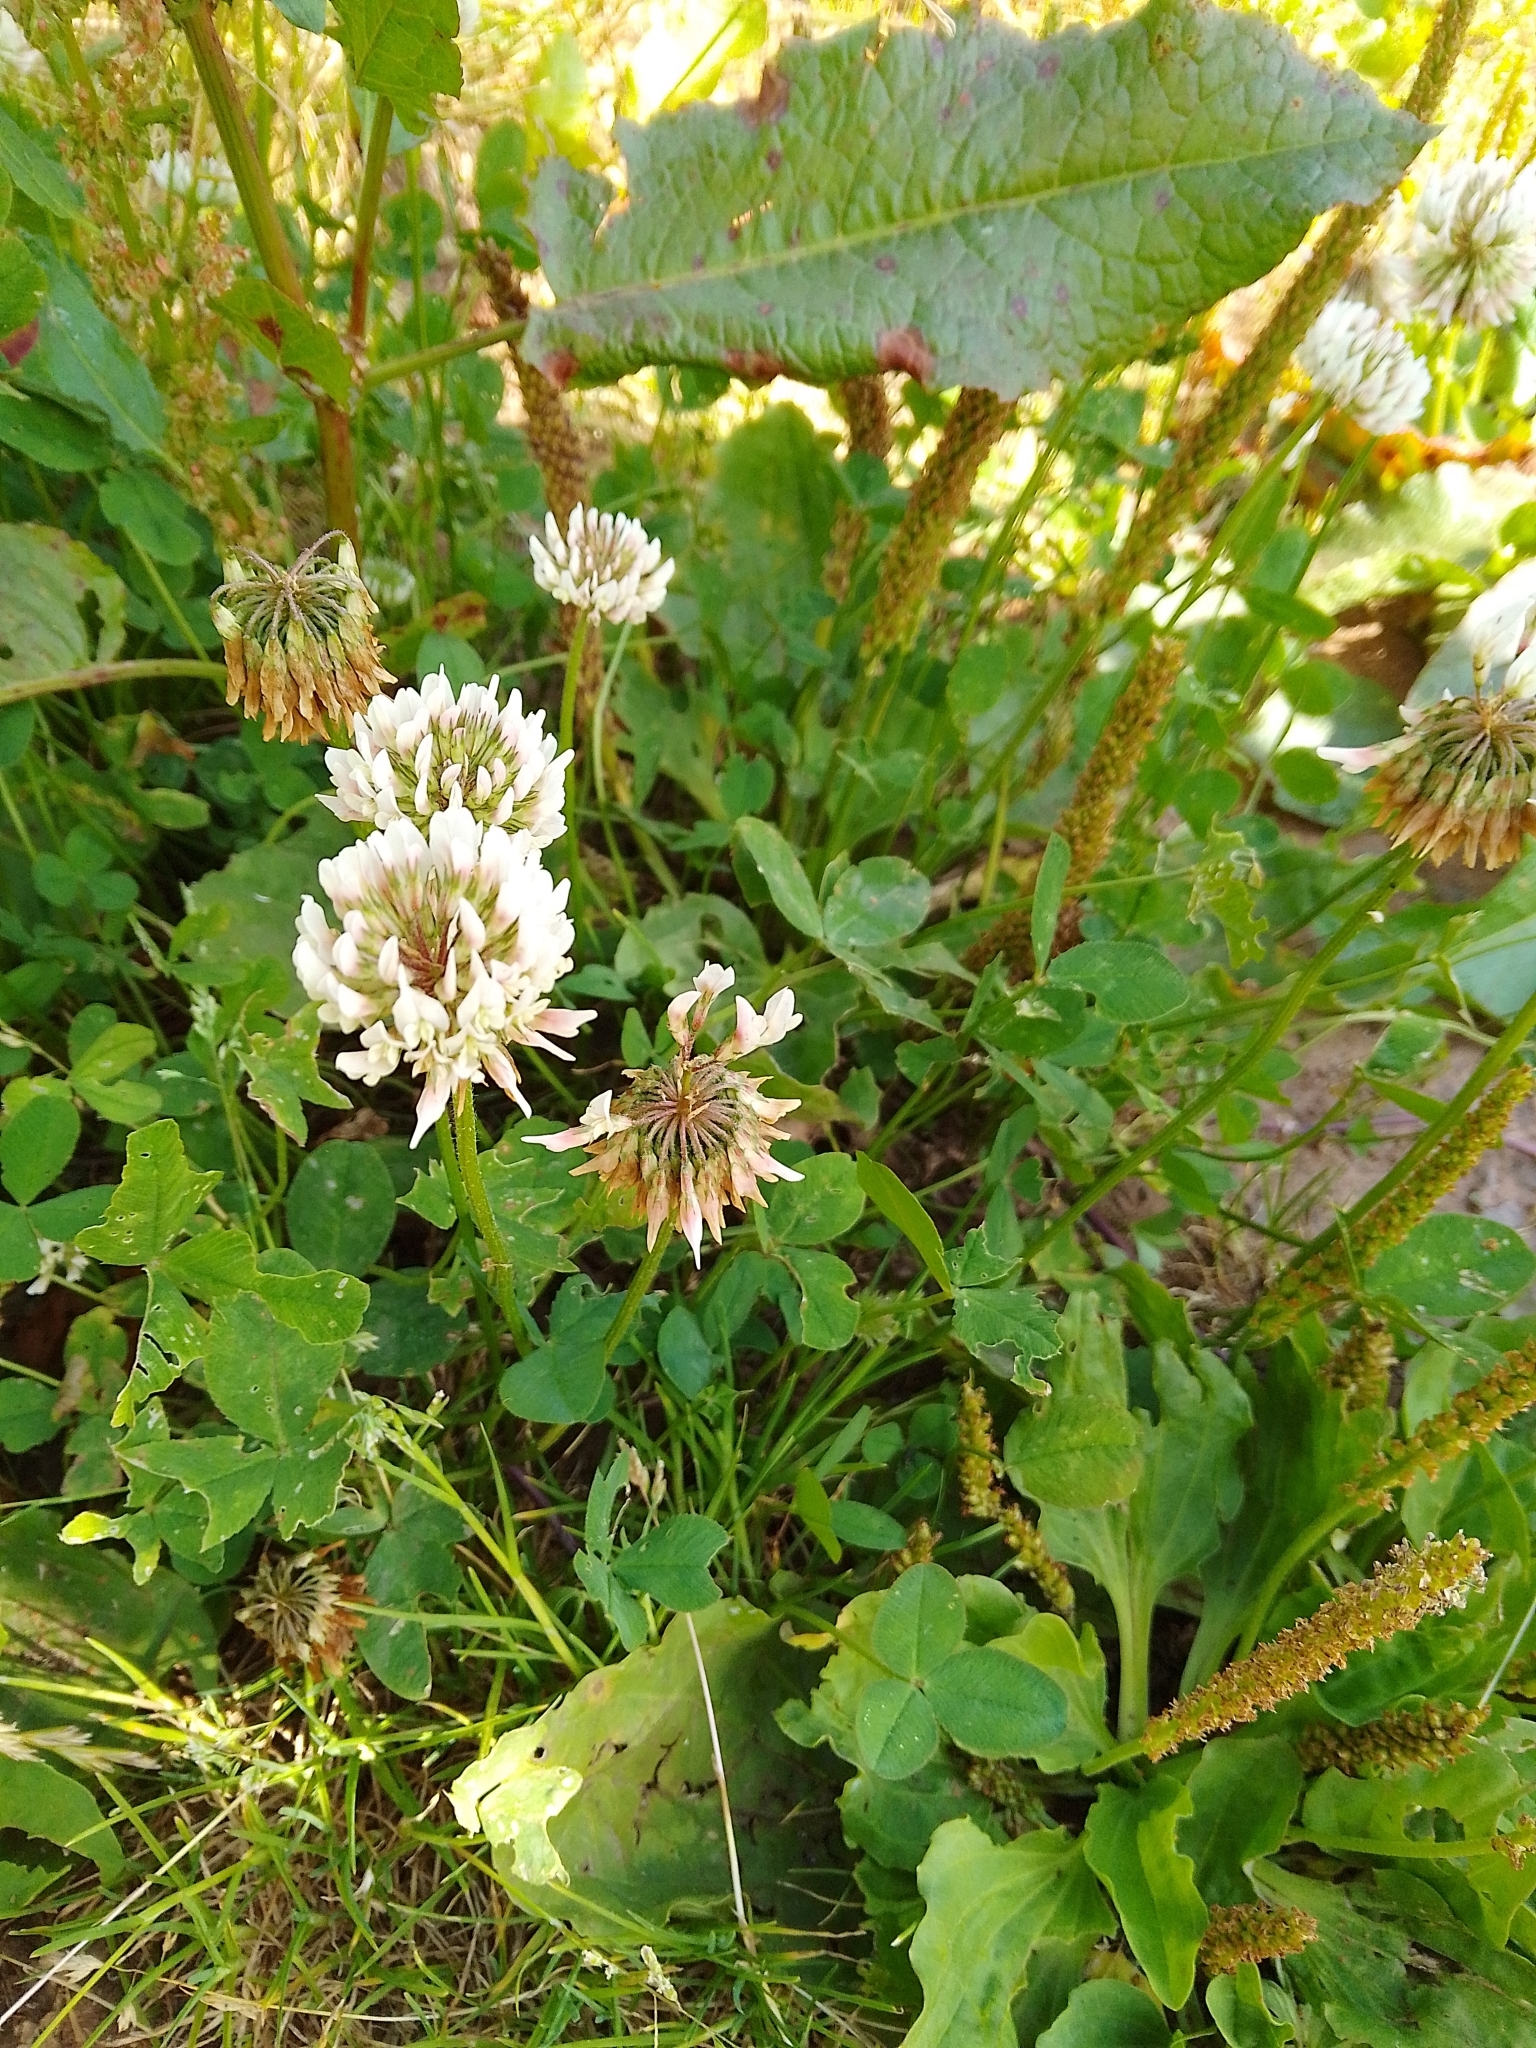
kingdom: Plantae
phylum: Tracheophyta
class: Magnoliopsida
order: Fabales
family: Fabaceae
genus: Trifolium
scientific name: Trifolium repens
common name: White clover
